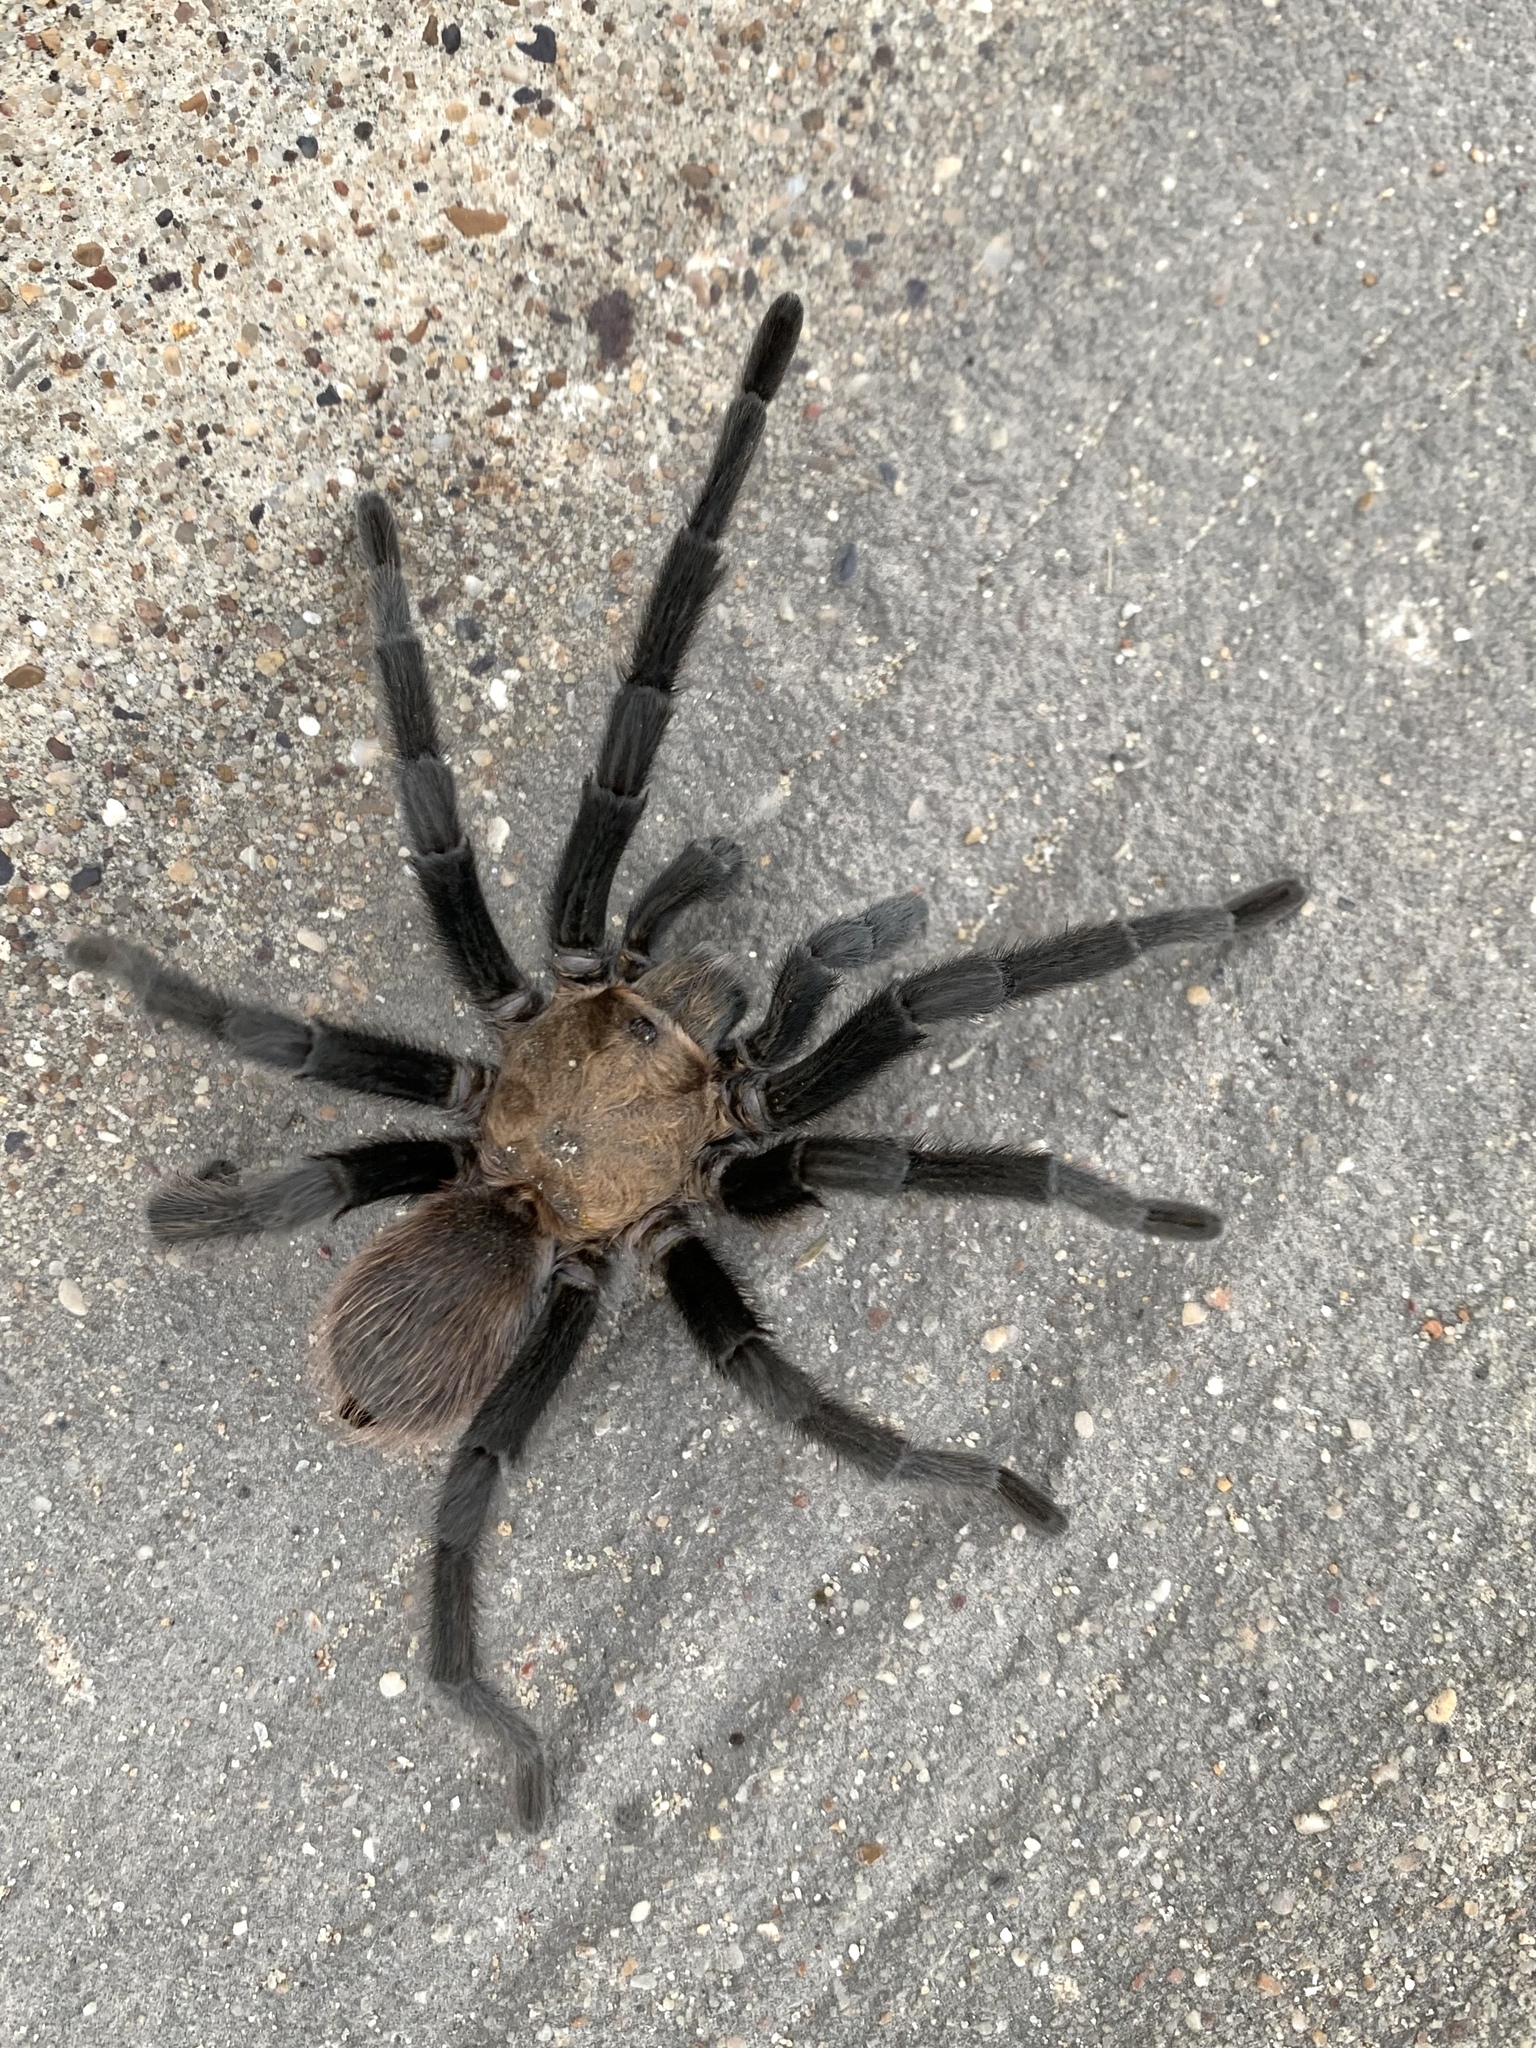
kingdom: Animalia
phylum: Arthropoda
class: Arachnida
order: Araneae
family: Theraphosidae
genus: Aphonopelma
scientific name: Aphonopelma hentzi
